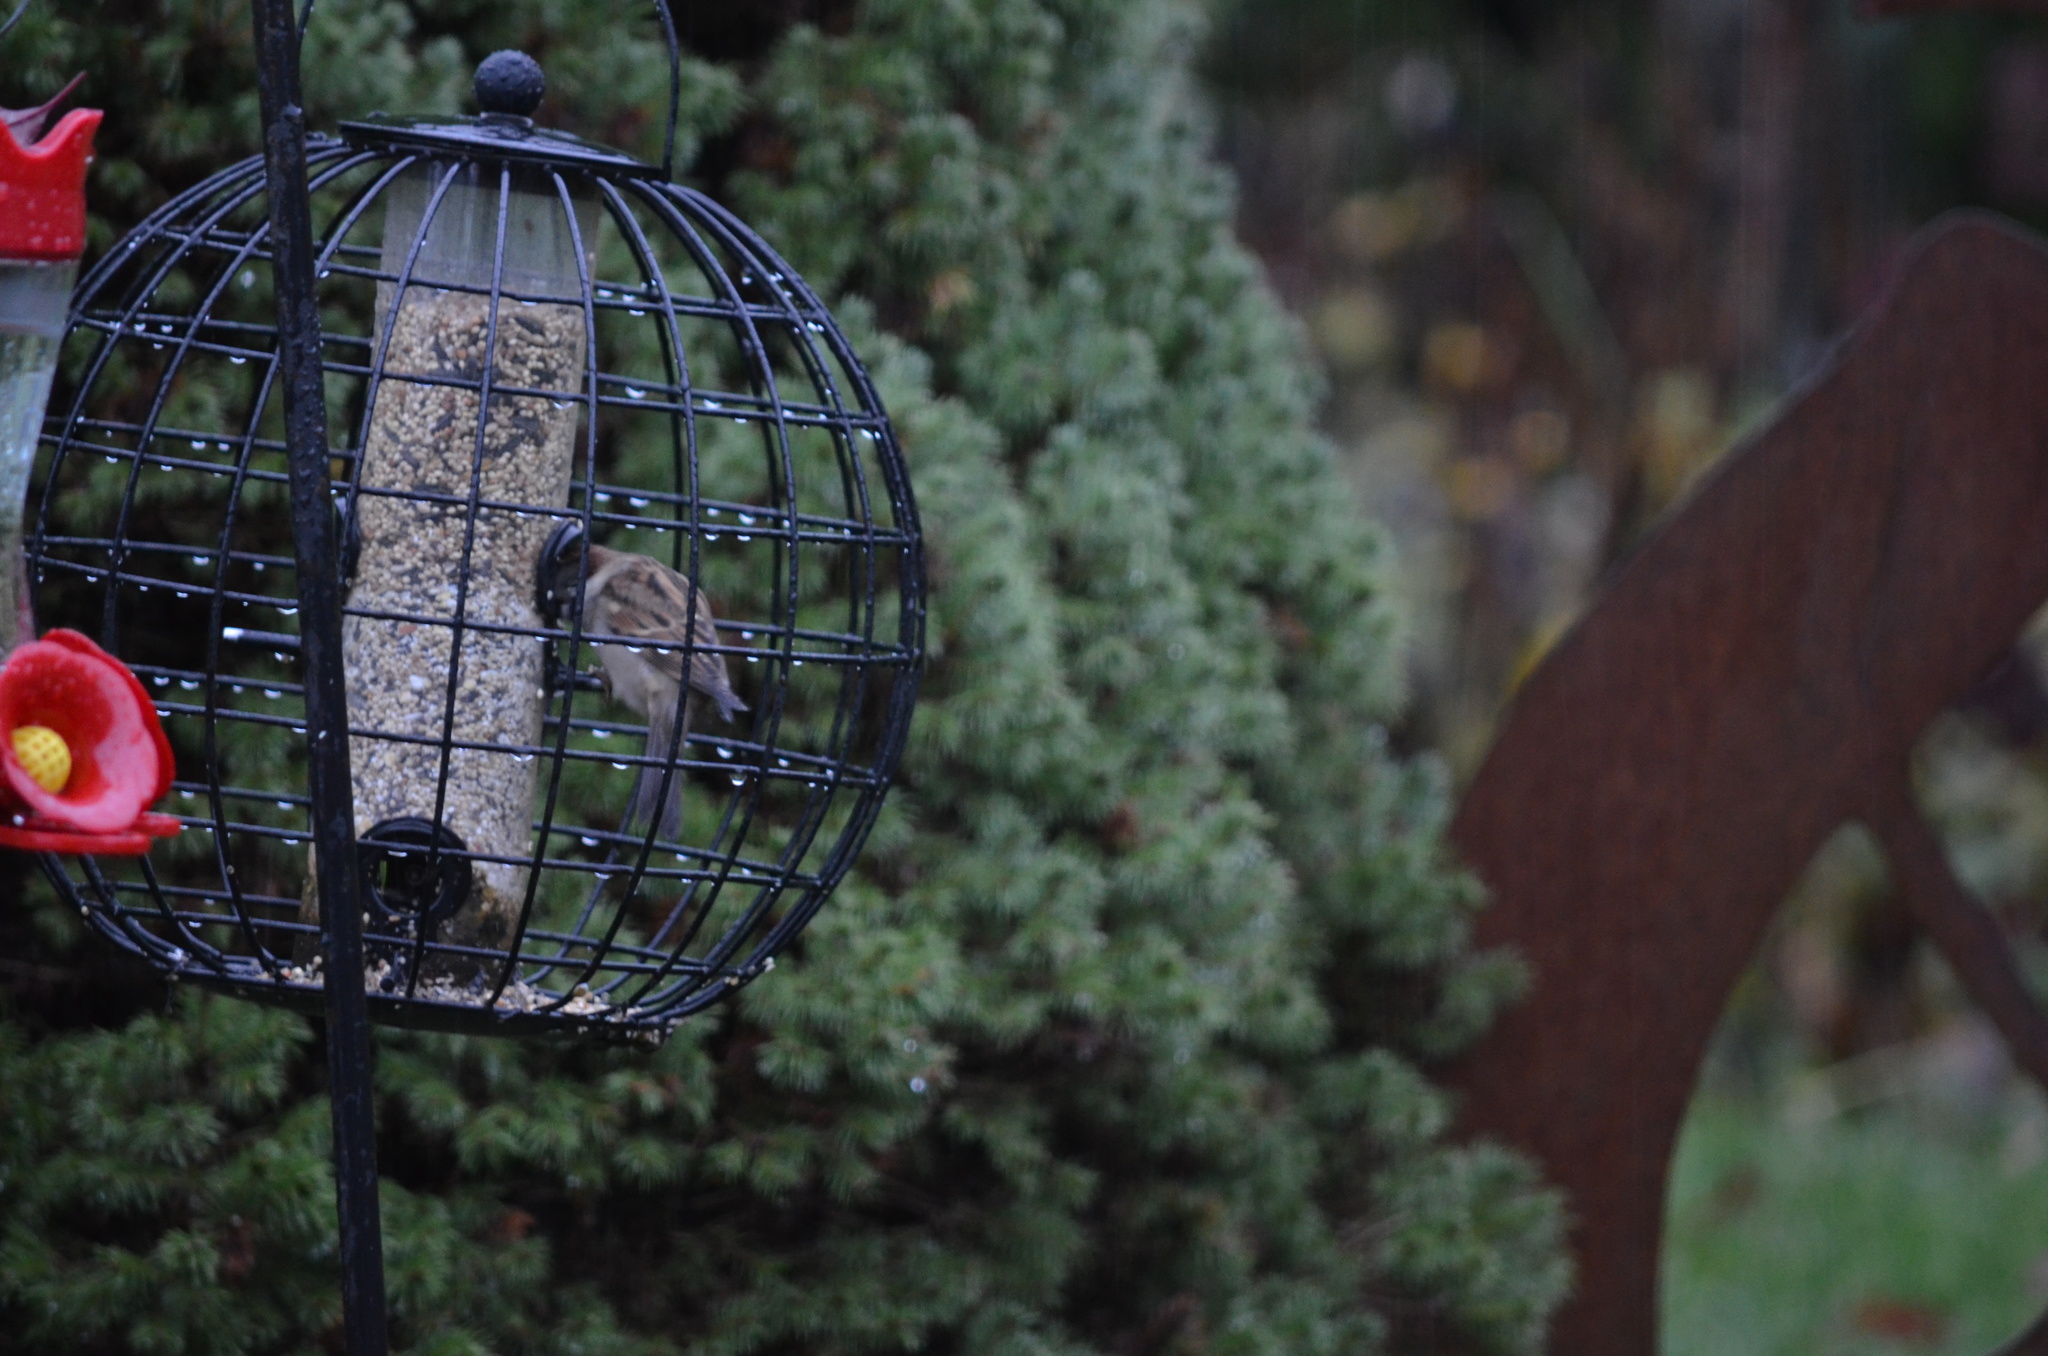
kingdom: Animalia
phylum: Chordata
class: Aves
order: Passeriformes
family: Passeridae
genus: Passer
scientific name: Passer domesticus
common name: House sparrow
